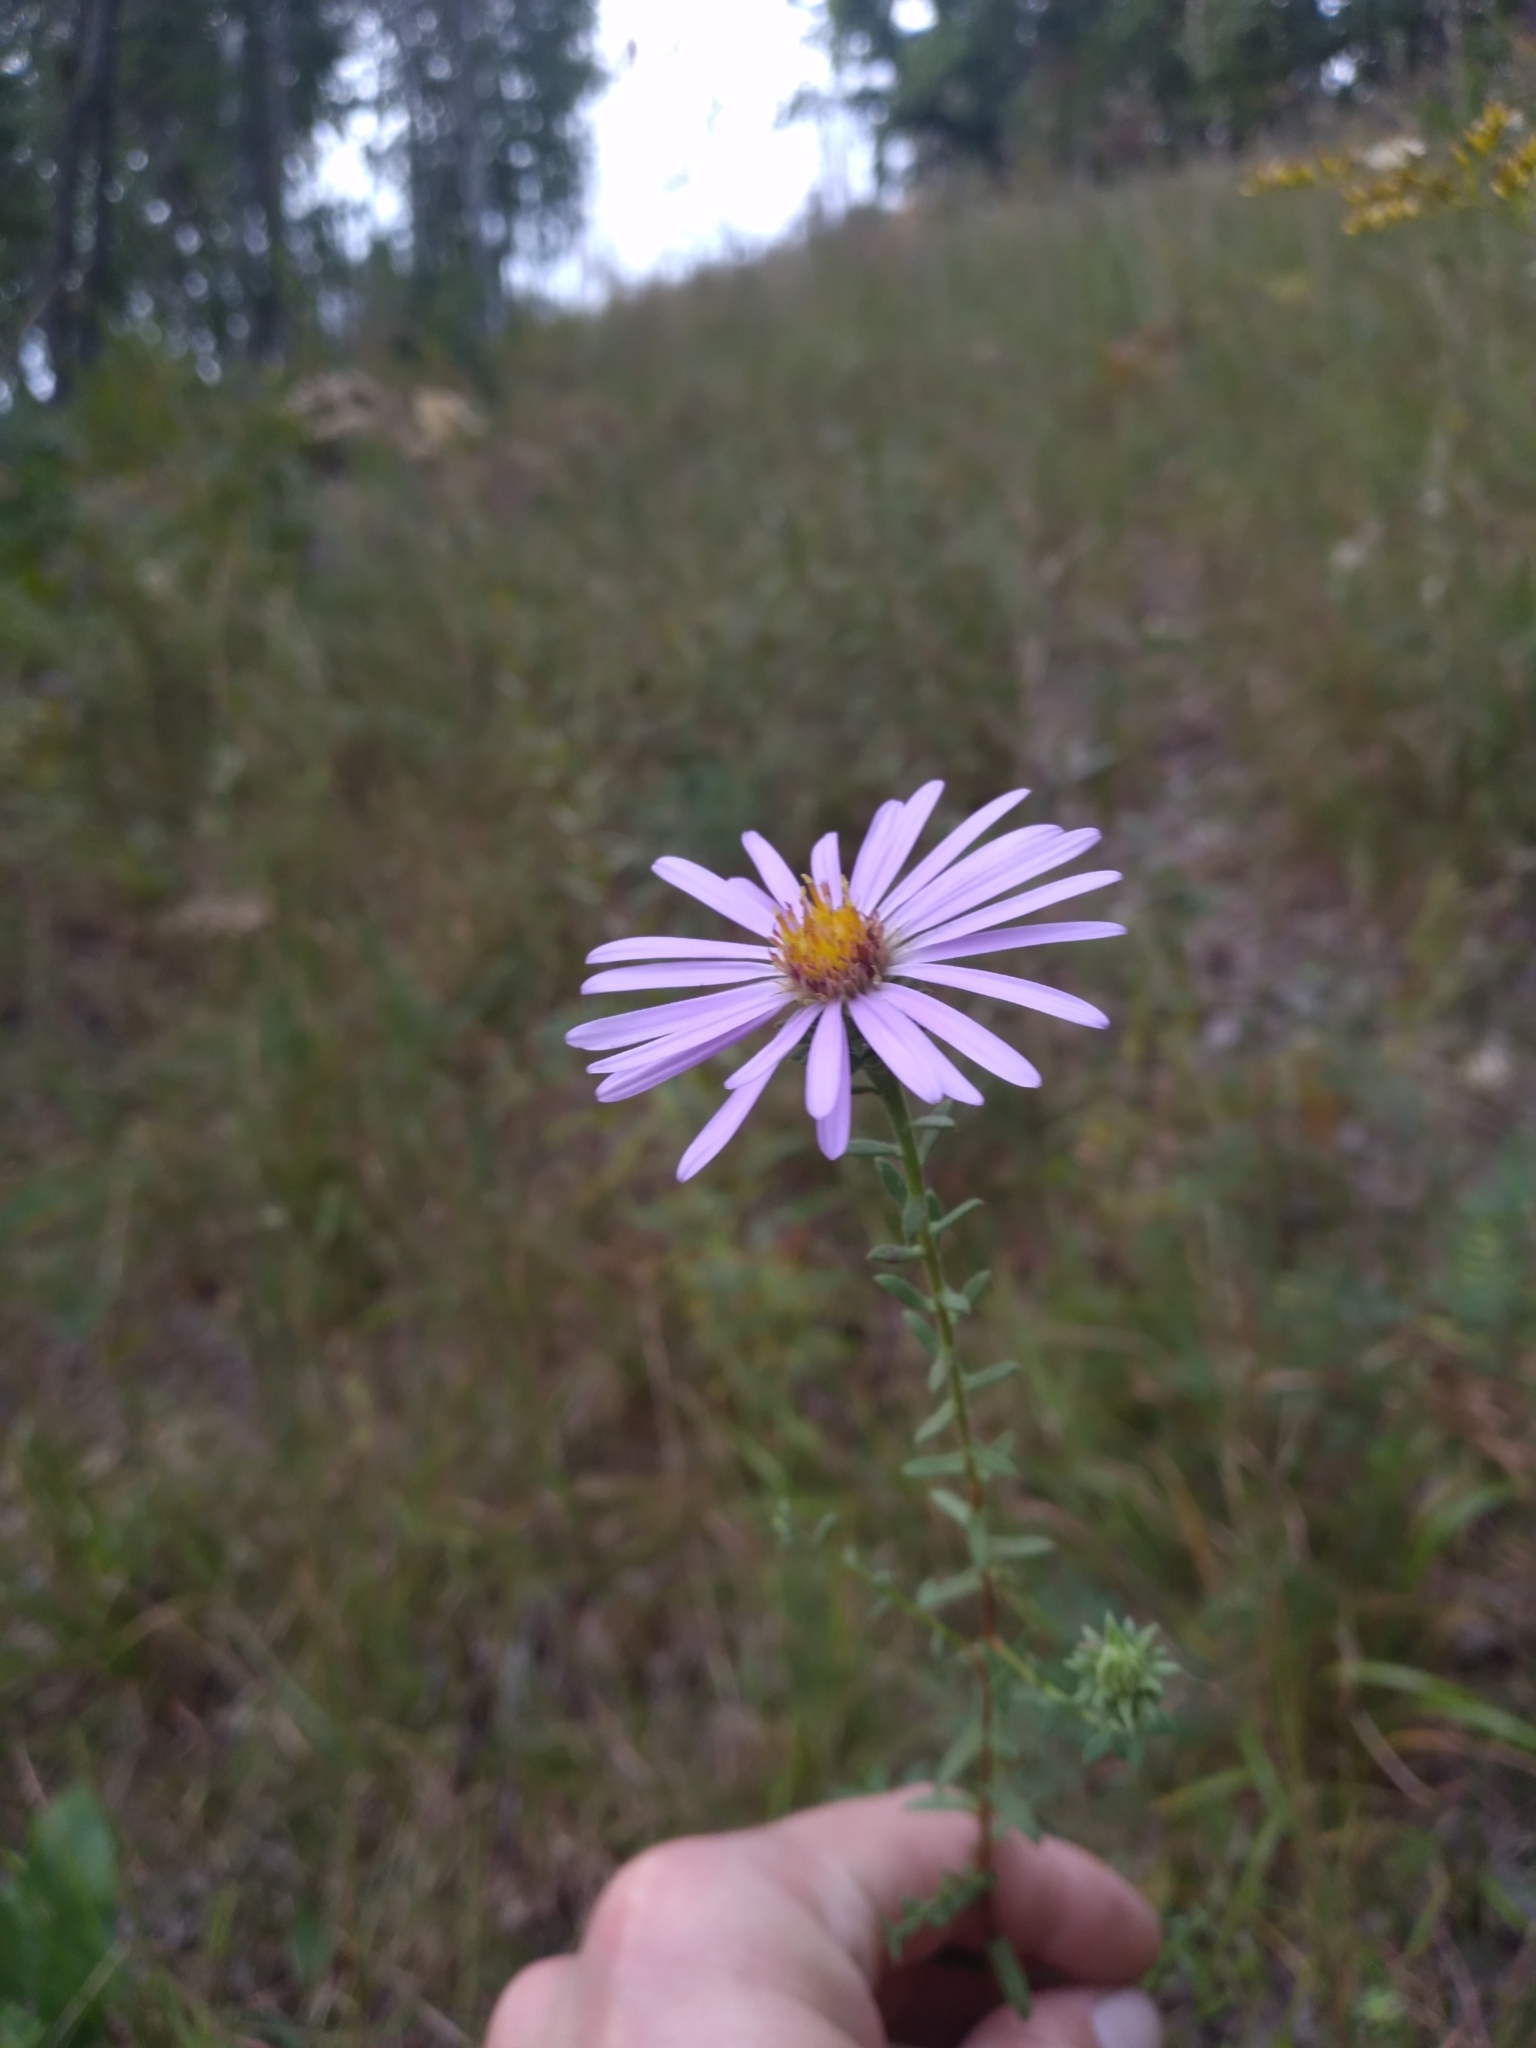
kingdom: Plantae
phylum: Tracheophyta
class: Magnoliopsida
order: Asterales
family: Asteraceae
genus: Symphyotrichum
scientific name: Symphyotrichum grandiflorum
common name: Big-head aster
